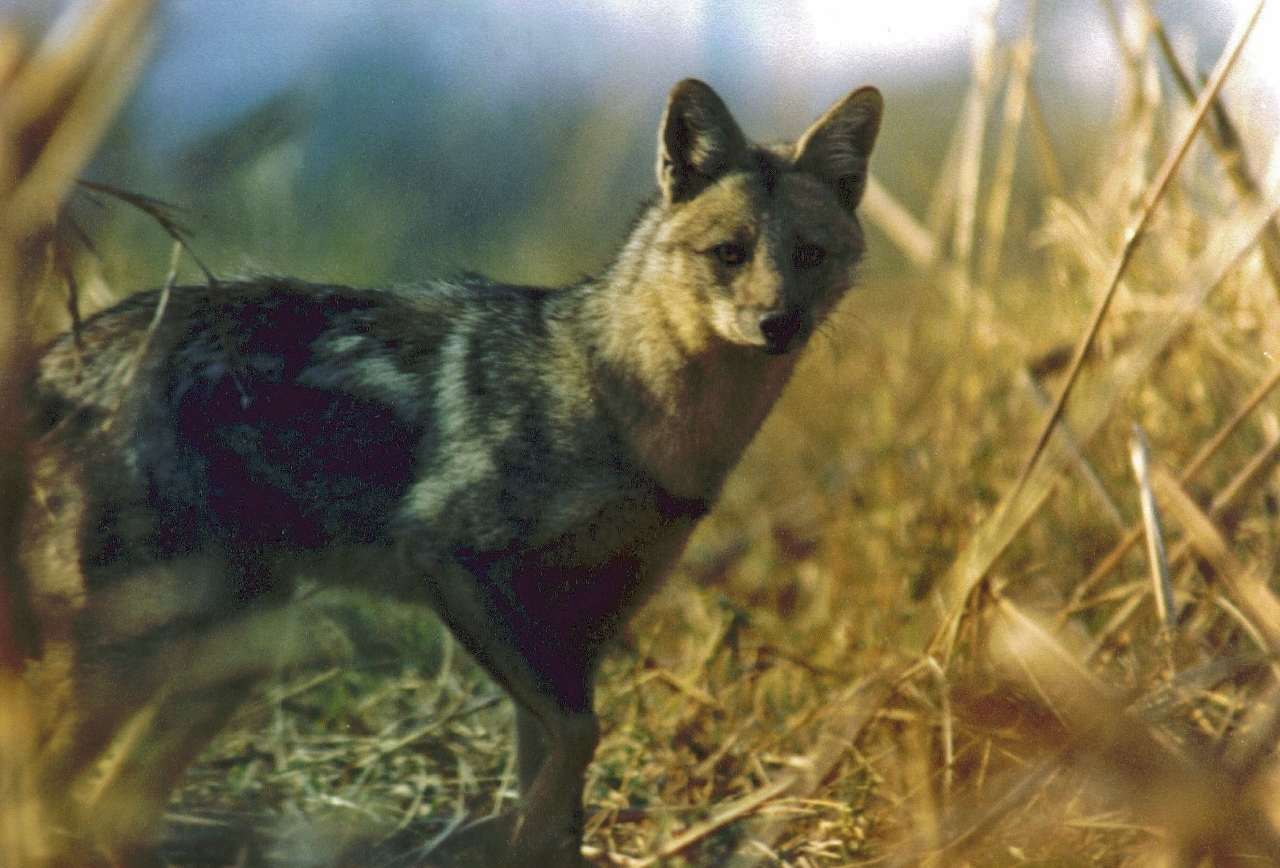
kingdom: Animalia
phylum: Chordata
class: Mammalia
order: Carnivora
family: Canidae
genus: Lupulella
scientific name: Lupulella
